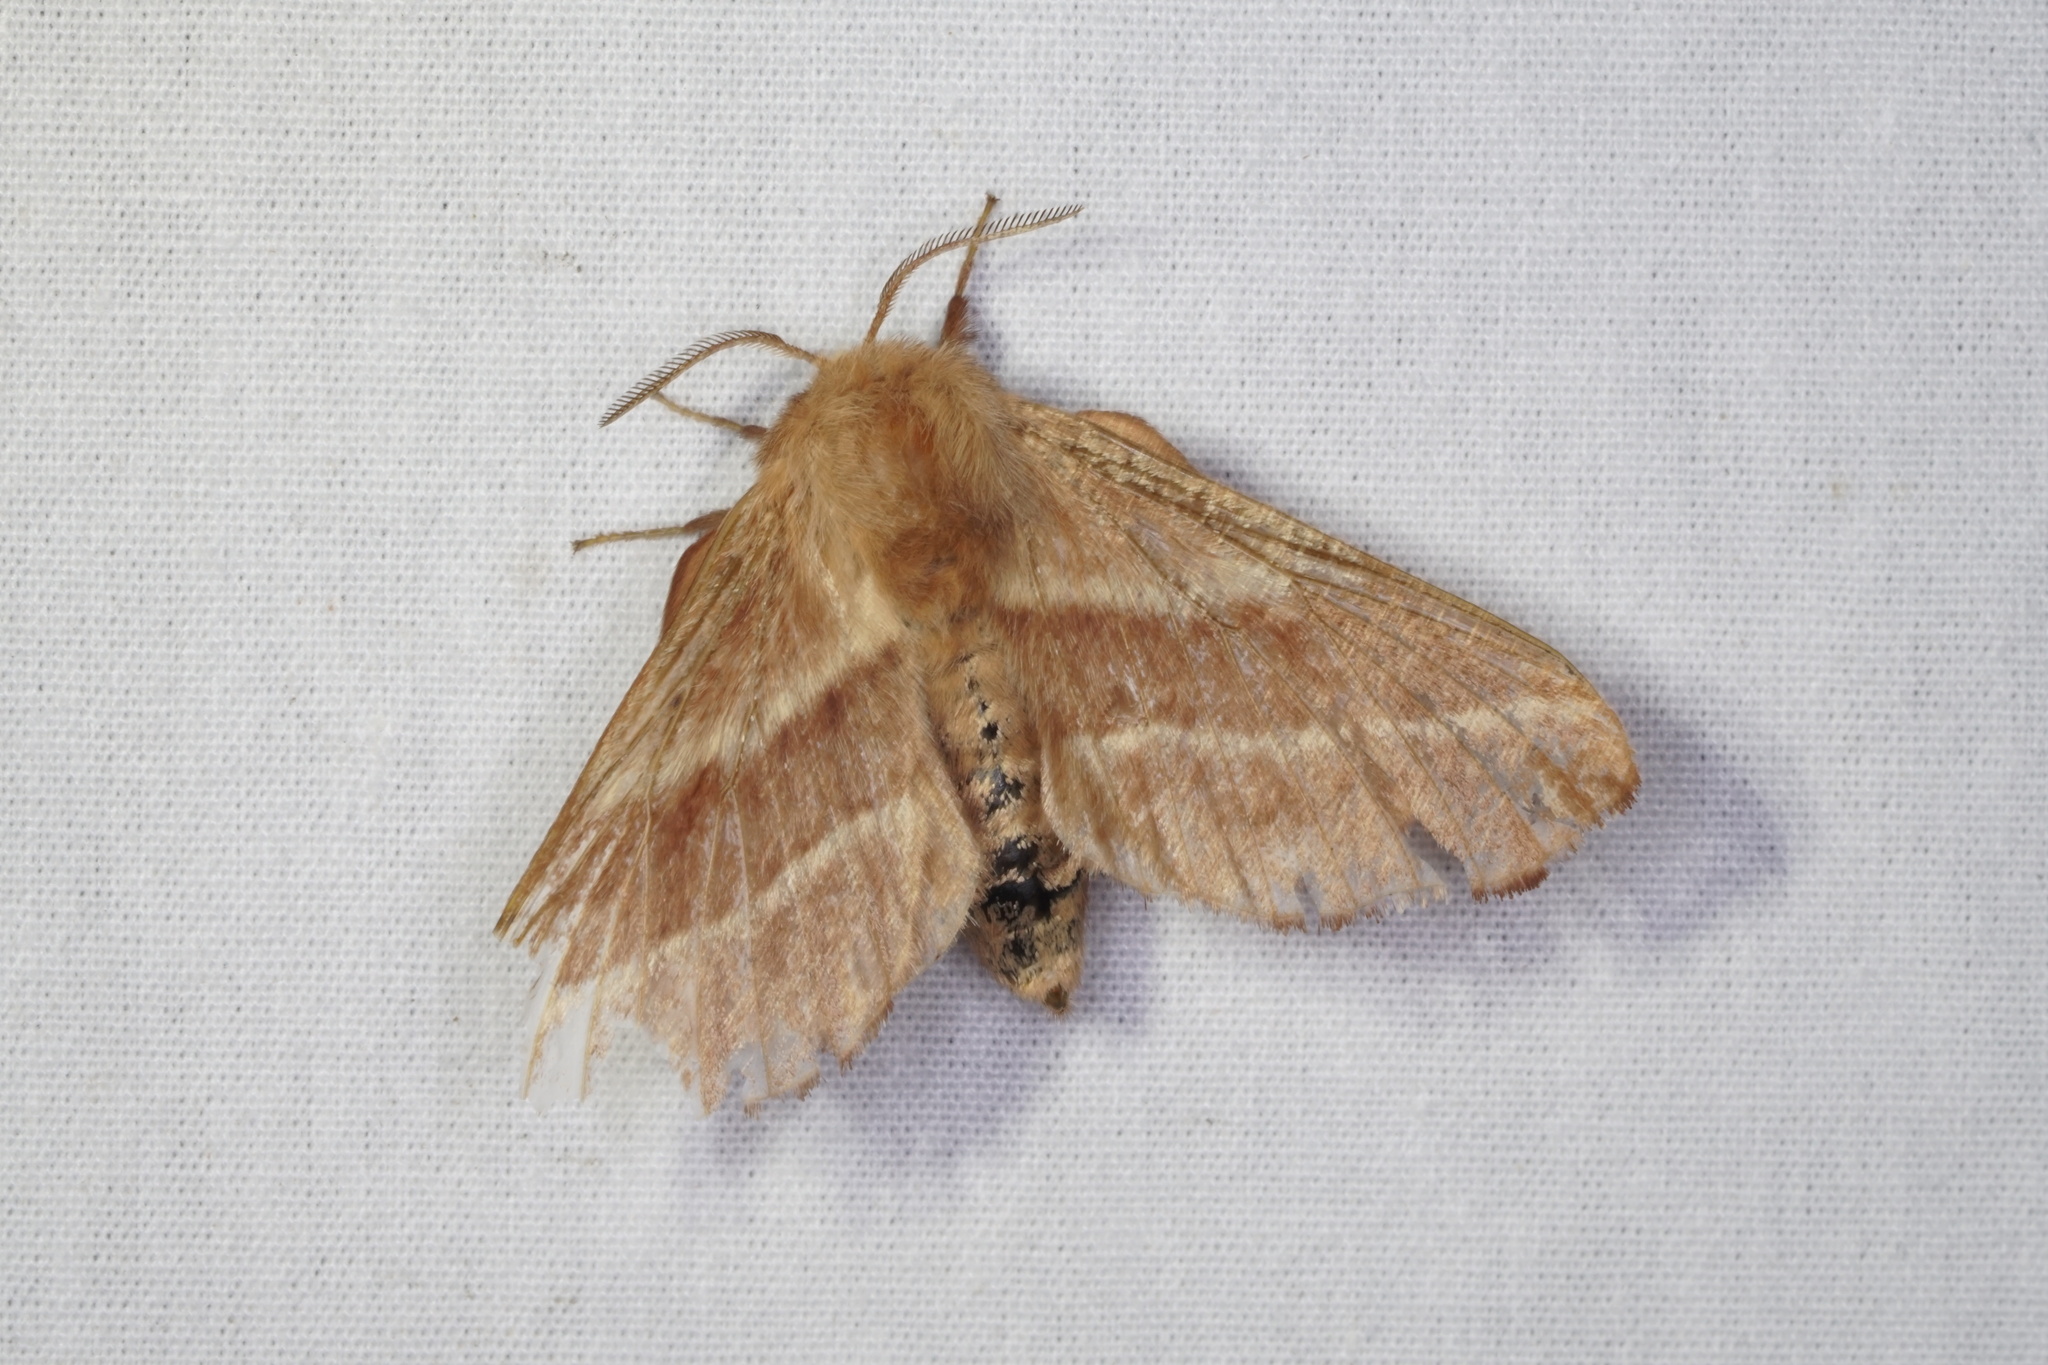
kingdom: Animalia
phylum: Arthropoda
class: Insecta
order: Lepidoptera
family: Lasiocampidae
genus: Malacosoma
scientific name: Malacosoma americana
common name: Eastern tent caterpillar moth
